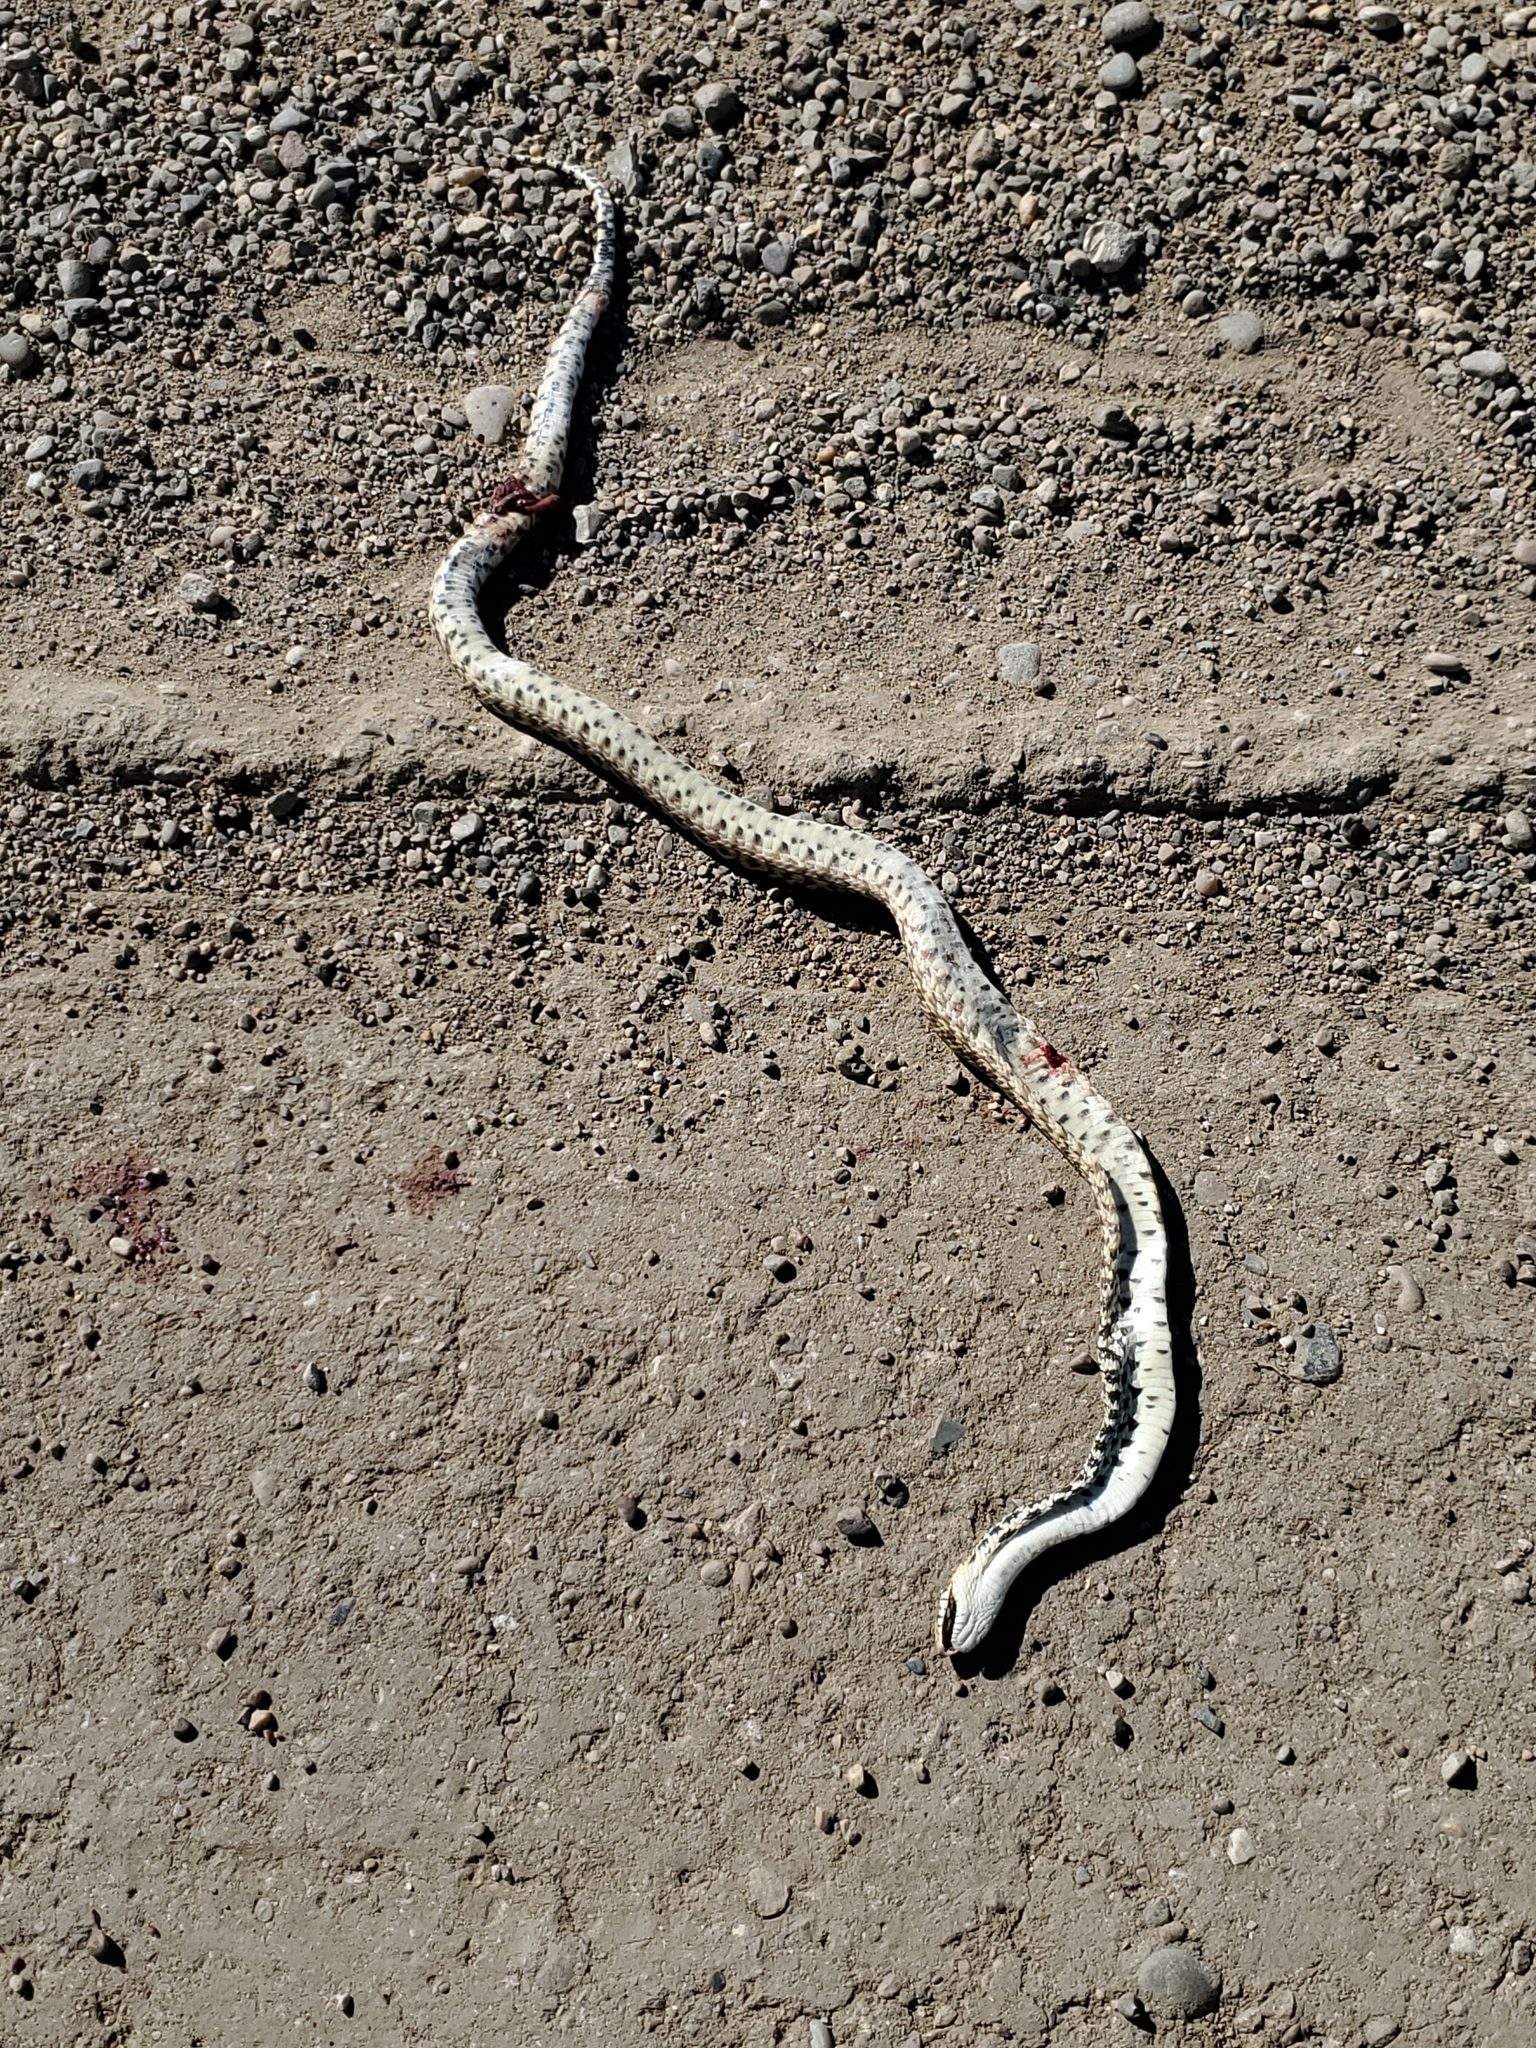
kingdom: Animalia
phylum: Chordata
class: Squamata
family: Colubridae
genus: Pituophis
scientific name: Pituophis catenifer
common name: Gopher snake
